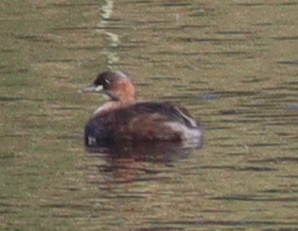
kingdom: Animalia
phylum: Chordata
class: Aves
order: Podicipediformes
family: Podicipedidae
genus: Tachybaptus
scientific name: Tachybaptus ruficollis
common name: Little grebe
